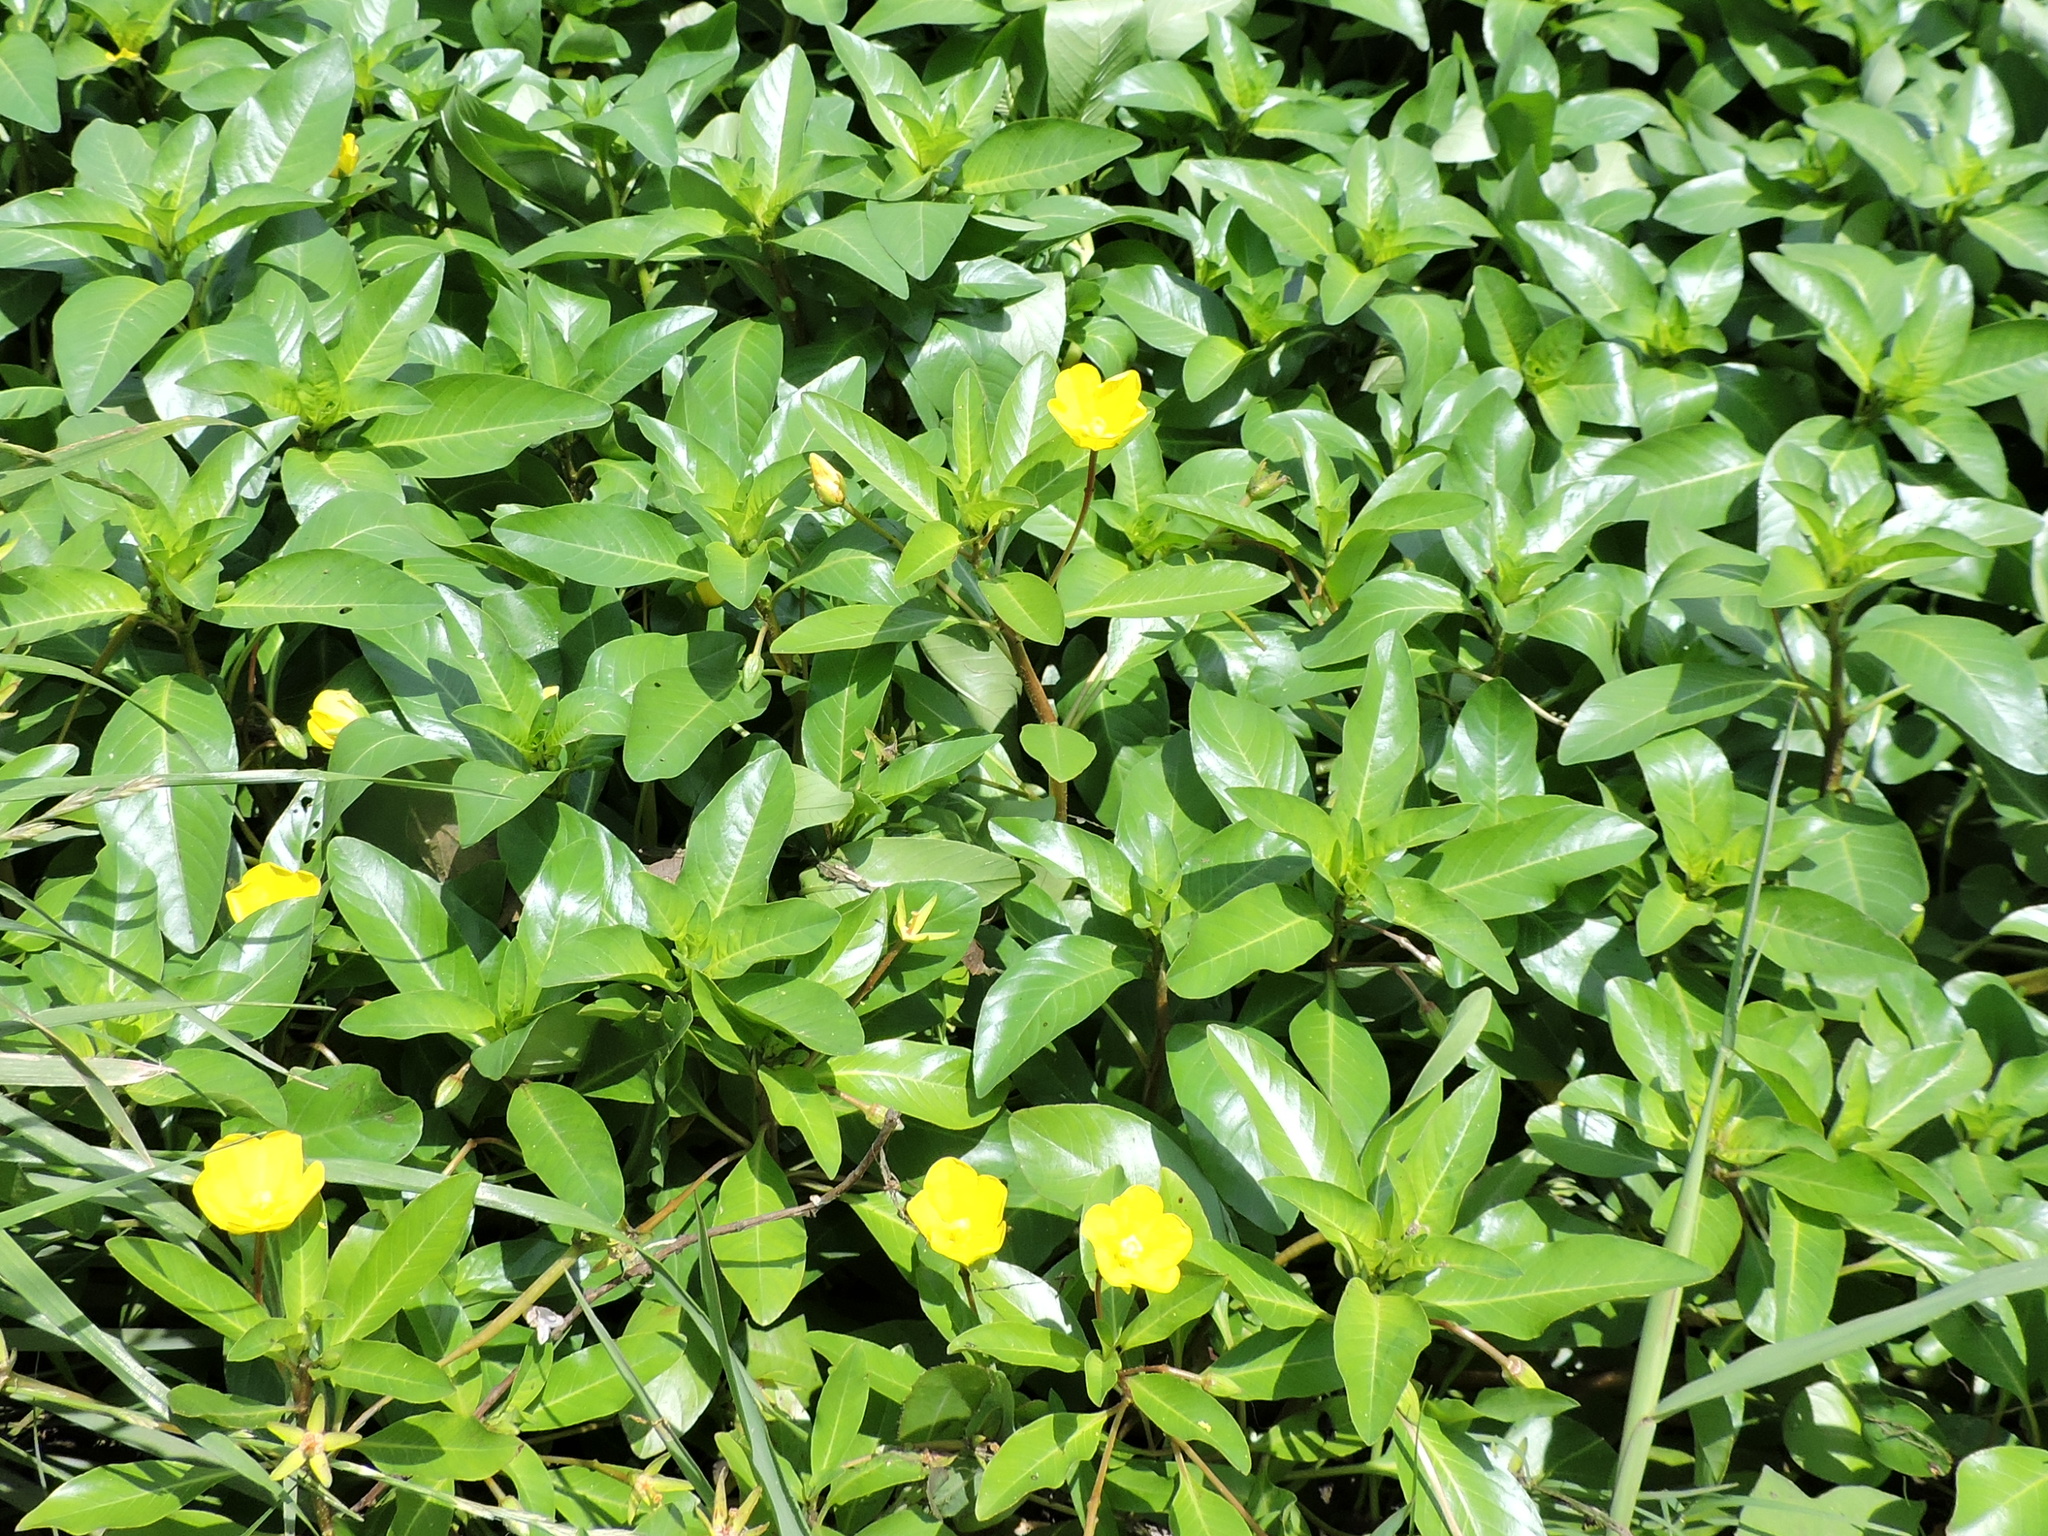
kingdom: Plantae
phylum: Tracheophyta
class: Magnoliopsida
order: Myrtales
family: Onagraceae
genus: Ludwigia
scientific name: Ludwigia peploides
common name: Floating primrose-willow
